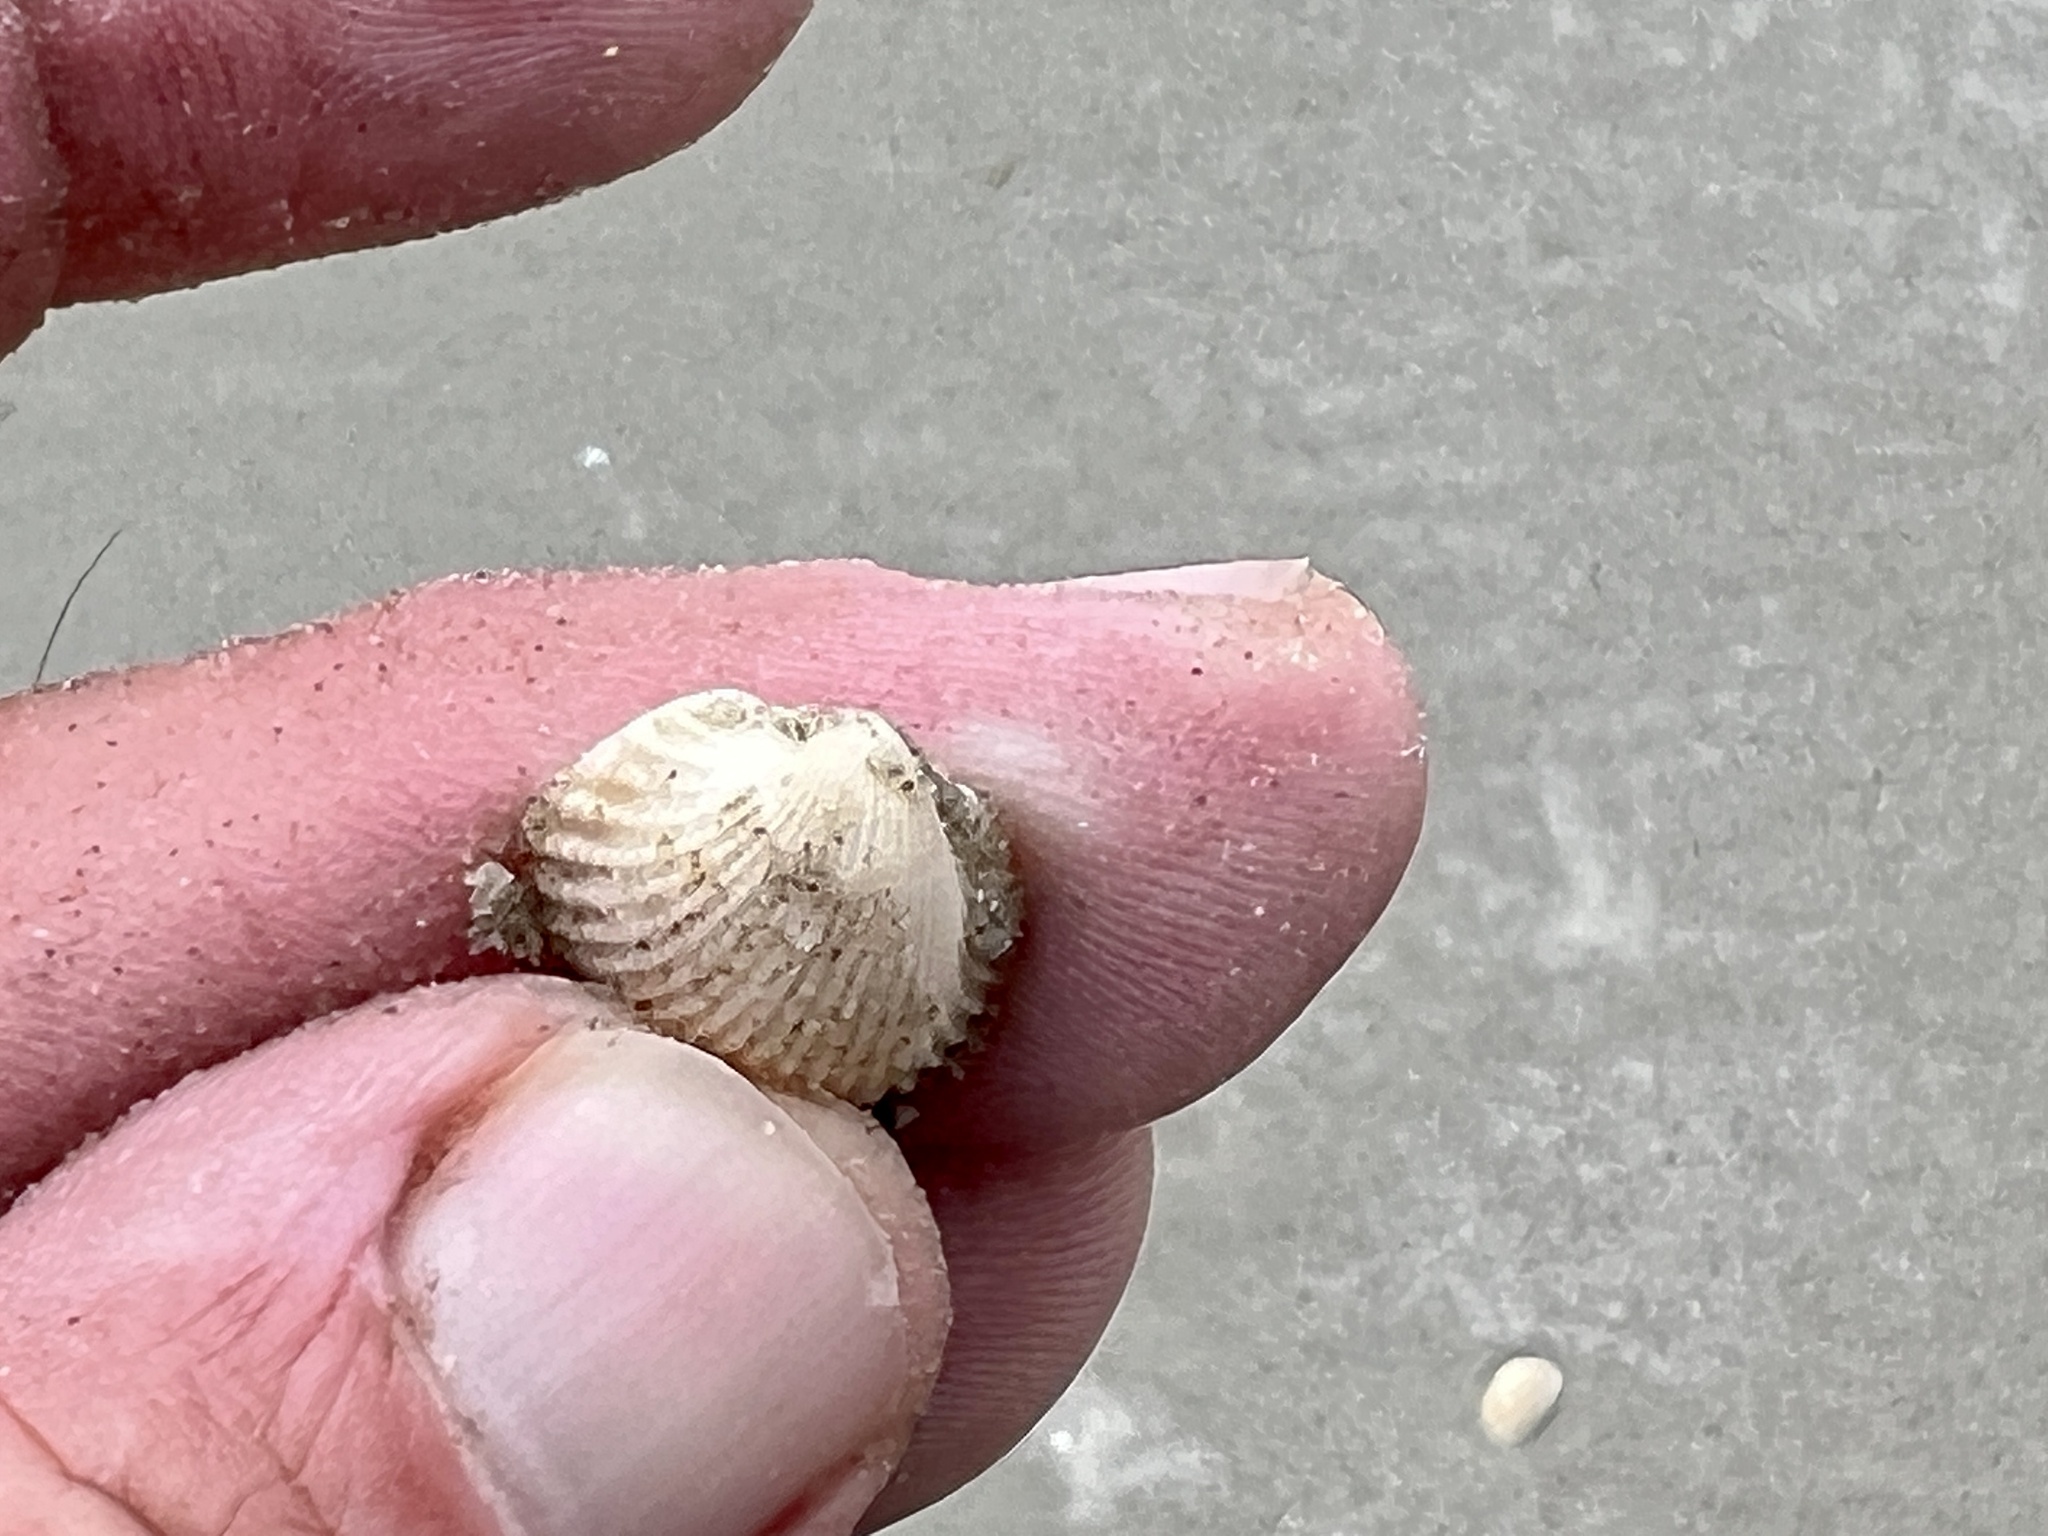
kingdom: Animalia
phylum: Mollusca
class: Bivalvia
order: Arcida
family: Arcidae
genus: Anadara
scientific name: Anadara chemnitzii
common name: Chemnitz's triangular ark
